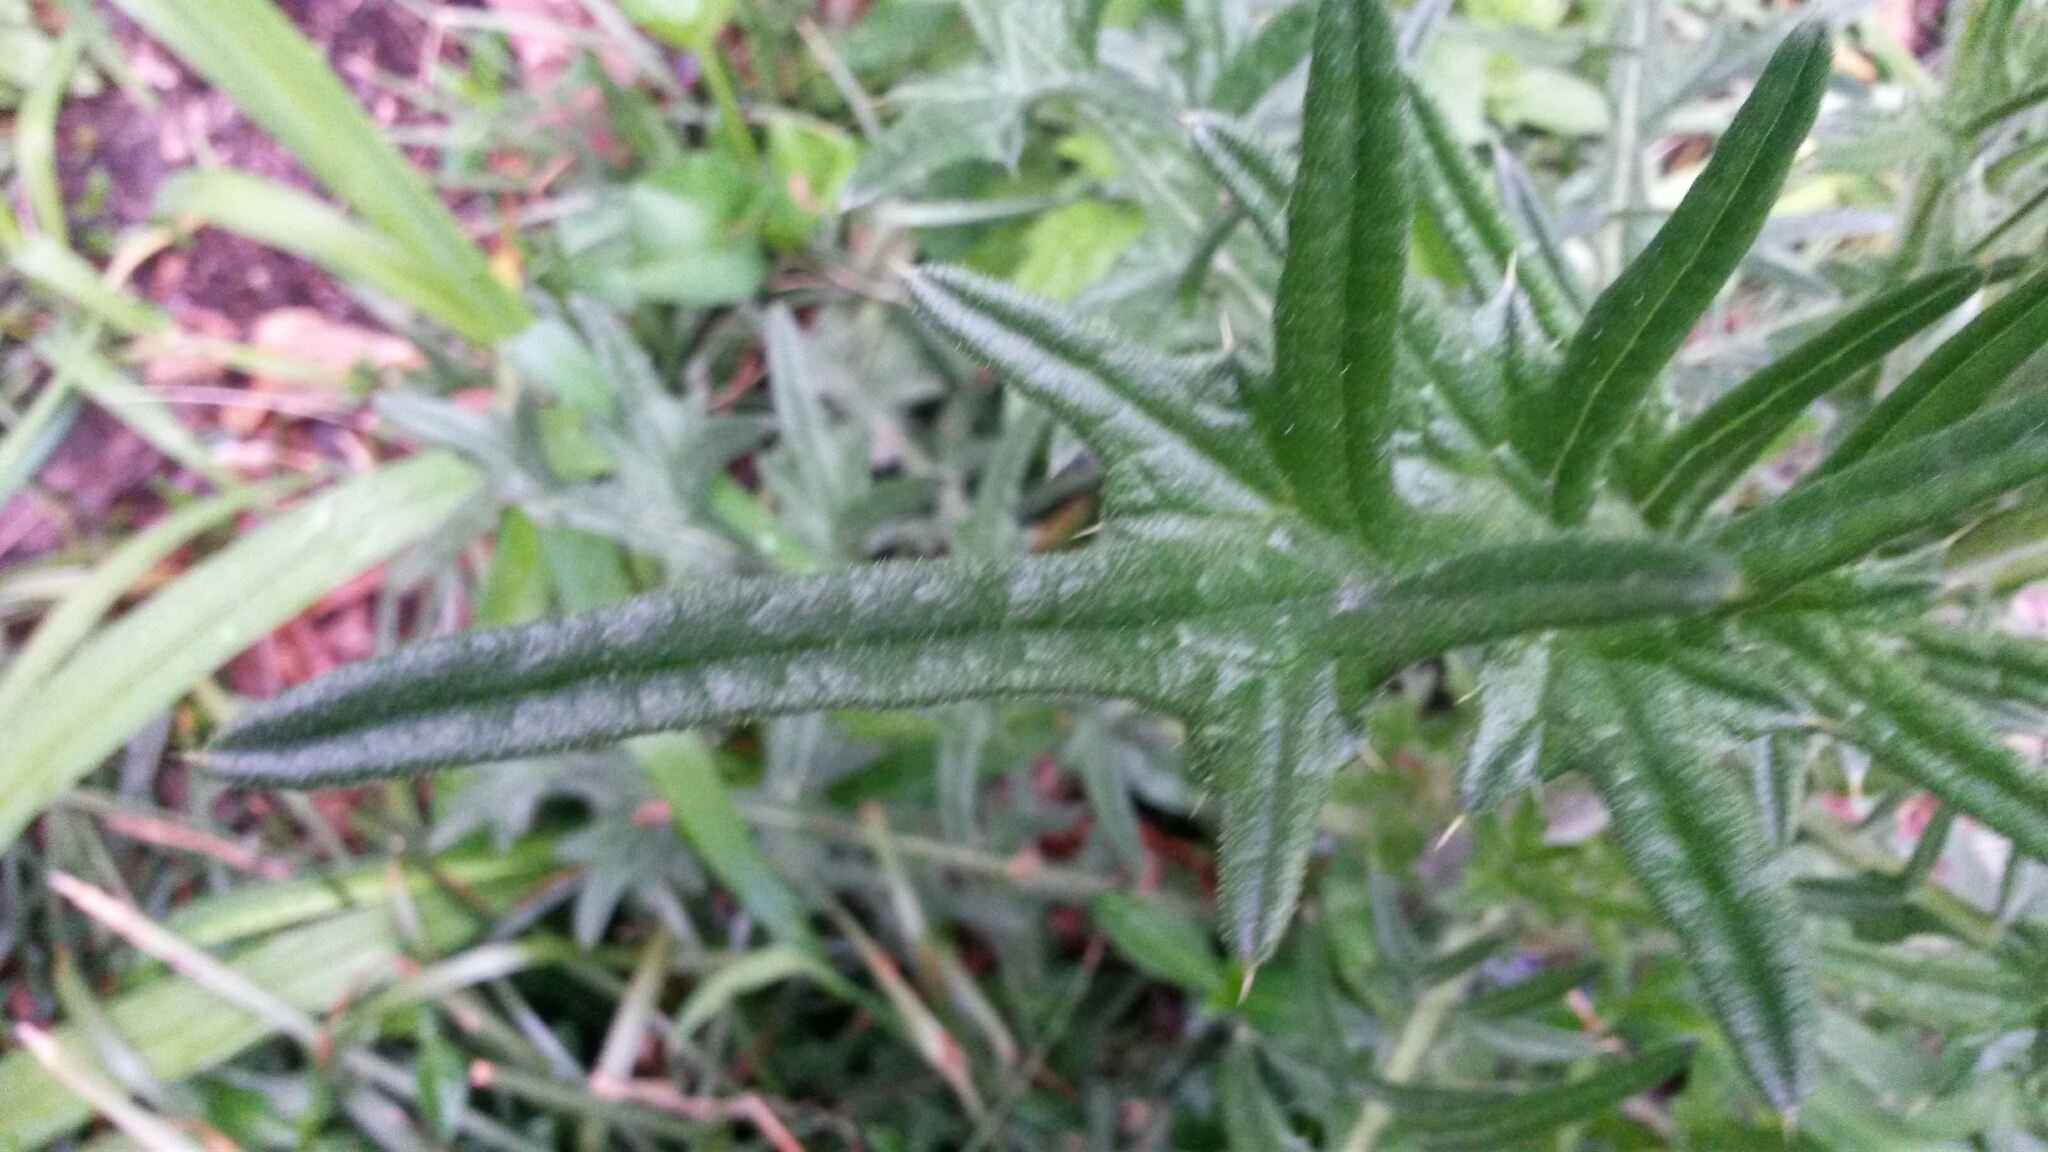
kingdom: Plantae
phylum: Tracheophyta
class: Magnoliopsida
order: Asterales
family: Asteraceae
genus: Cirsium
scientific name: Cirsium vulgare
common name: Bull thistle
